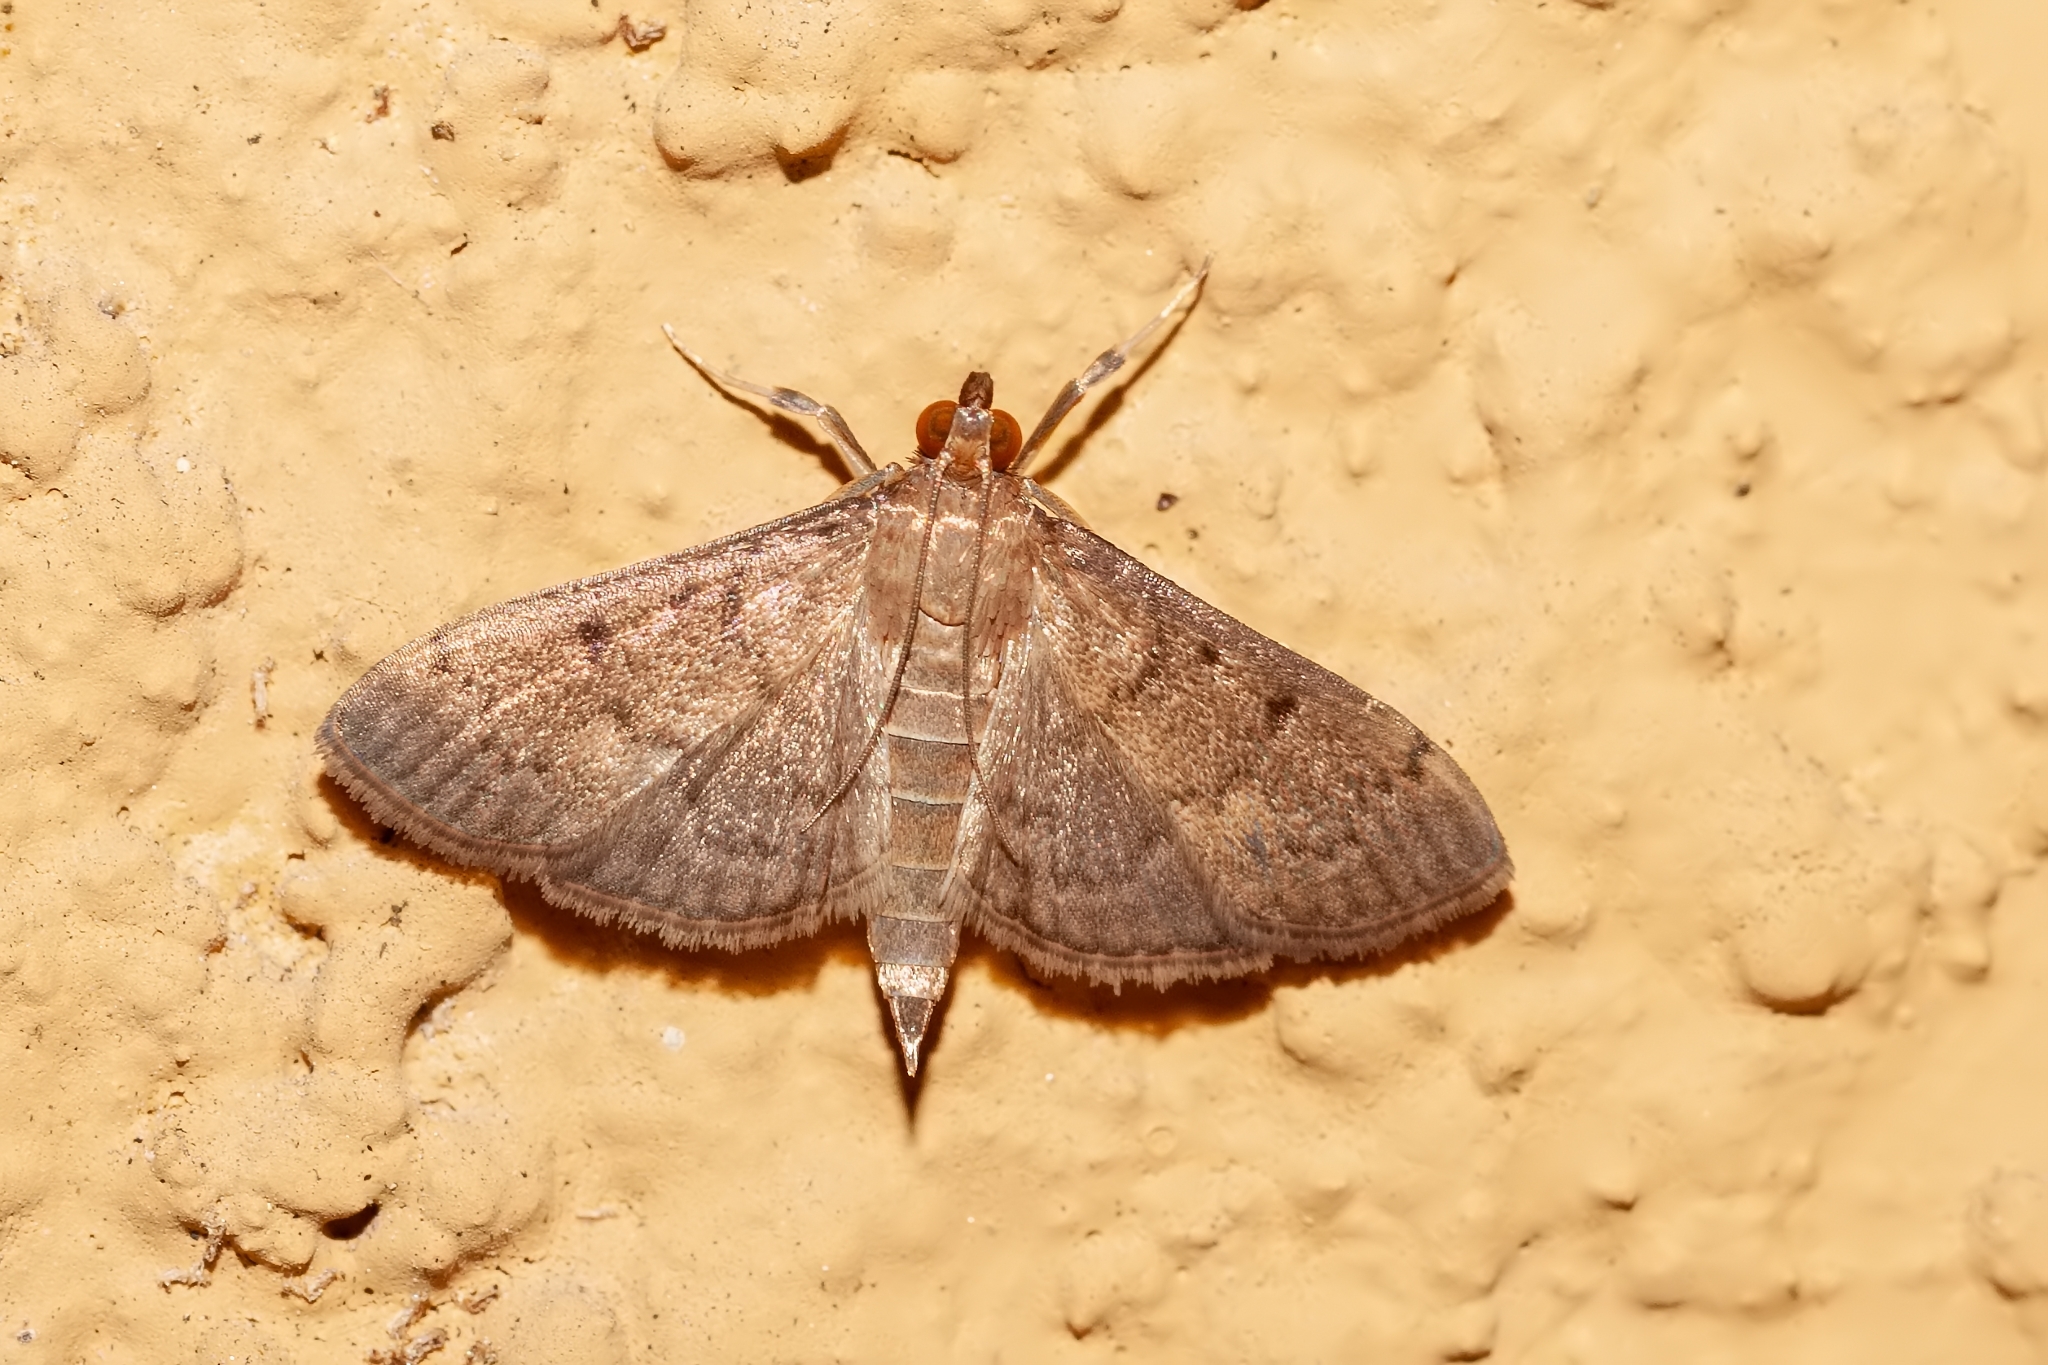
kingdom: Animalia
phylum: Arthropoda
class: Insecta
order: Lepidoptera
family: Crambidae
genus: Herpetogramma
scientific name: Herpetogramma phaeopteralis
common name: Dusky herpetogramma moth
